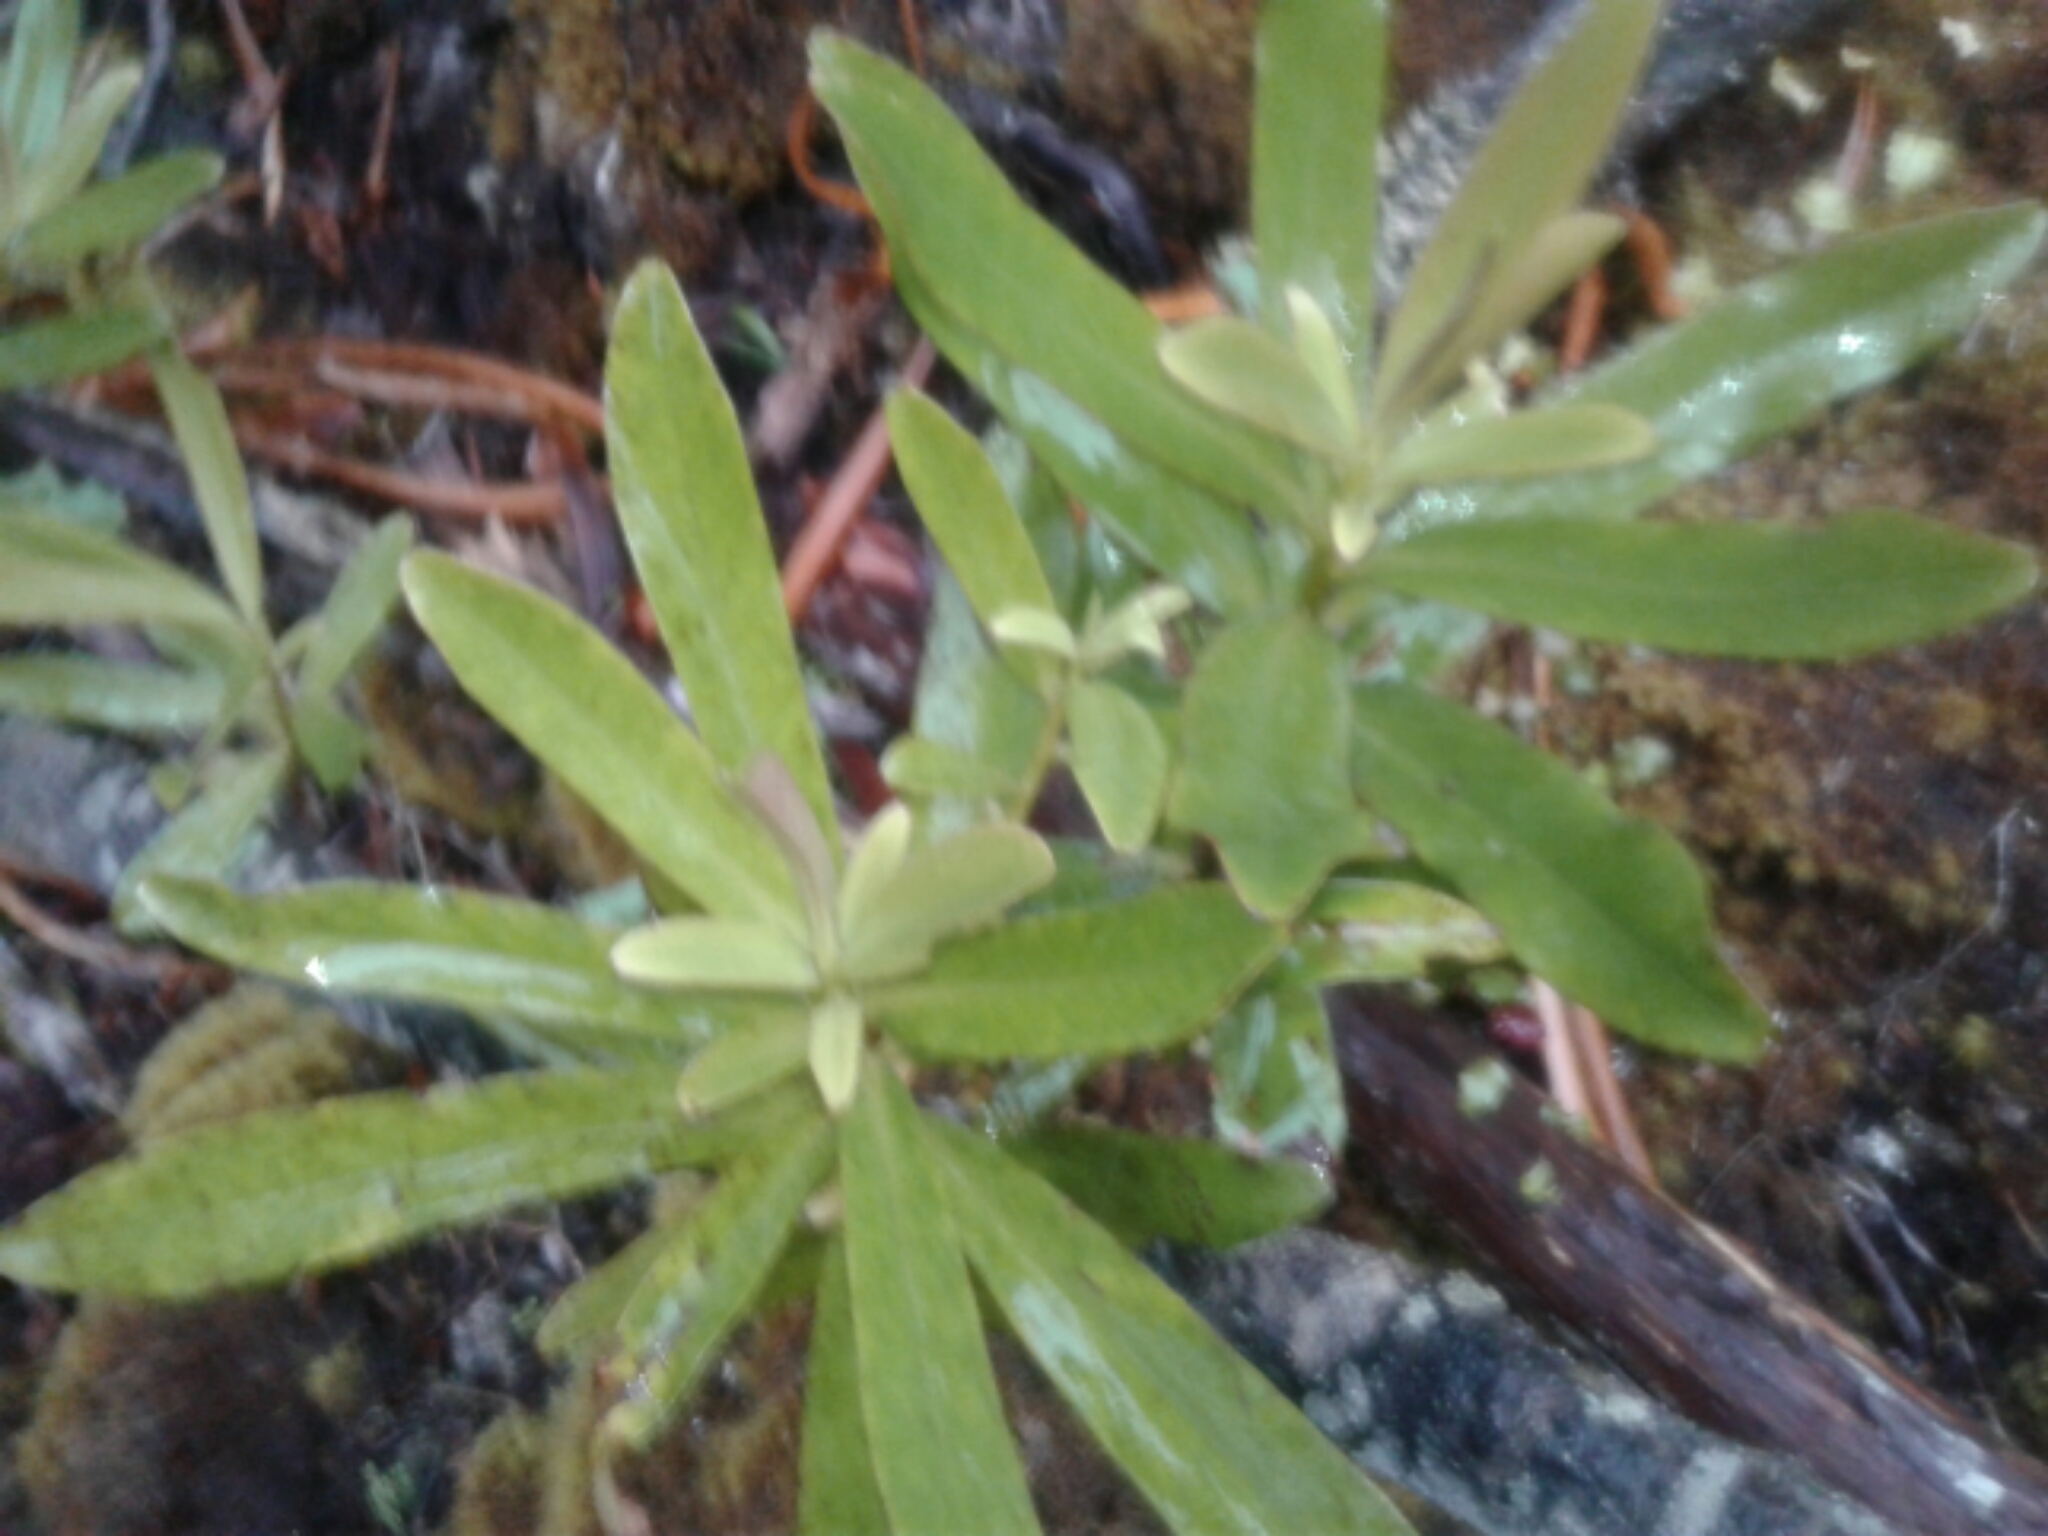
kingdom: Plantae
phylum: Tracheophyta
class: Magnoliopsida
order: Ericales
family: Primulaceae
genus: Myrsine
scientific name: Myrsine salicina
